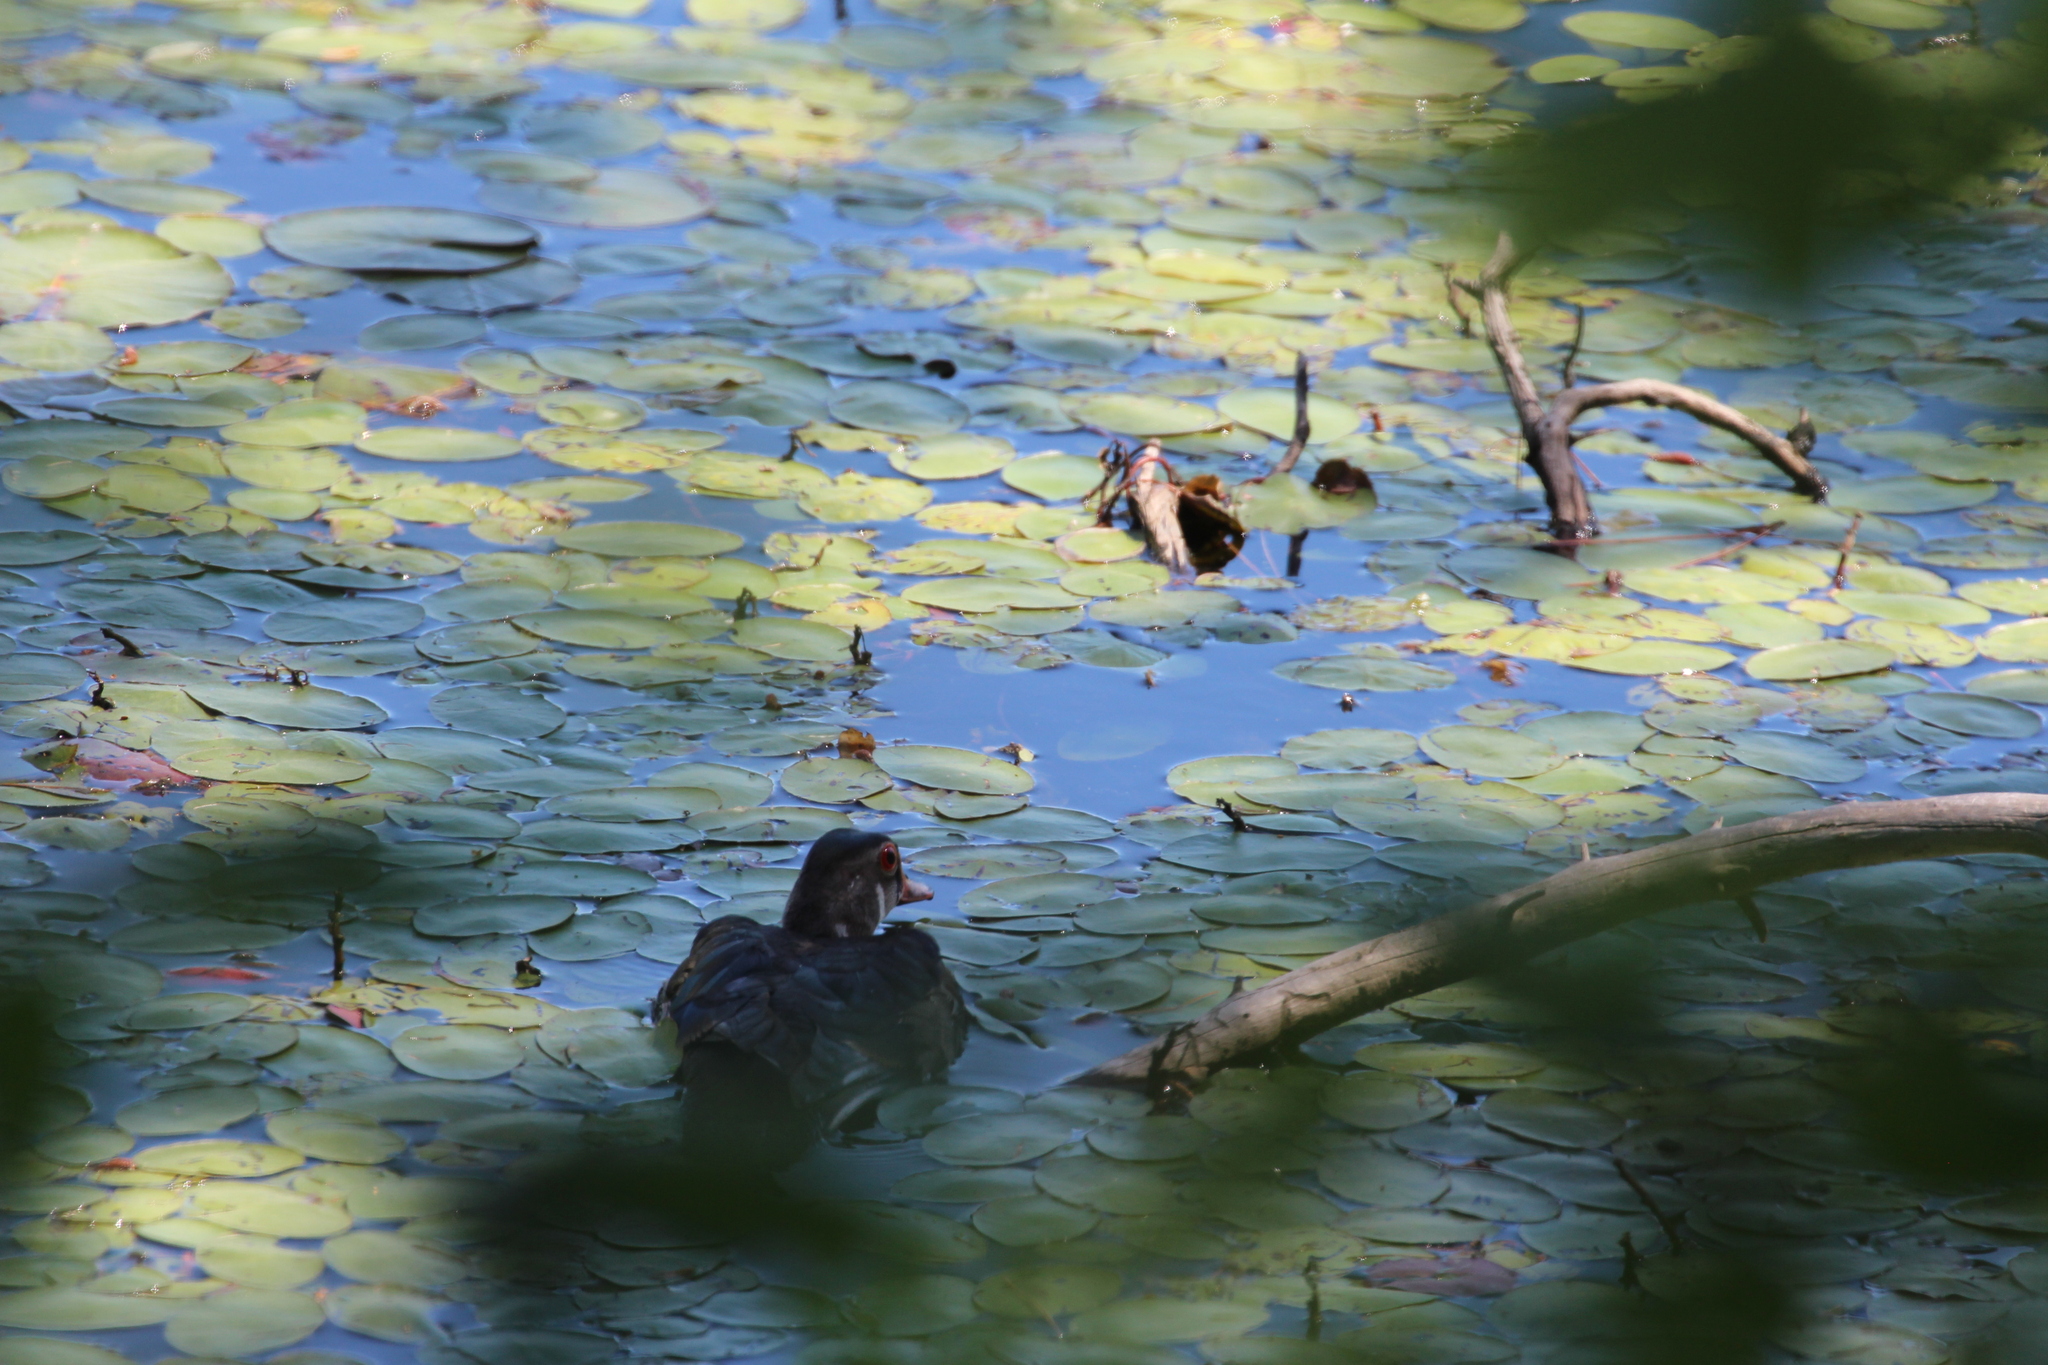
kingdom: Animalia
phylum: Chordata
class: Aves
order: Anseriformes
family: Anatidae
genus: Aix
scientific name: Aix sponsa
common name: Wood duck
